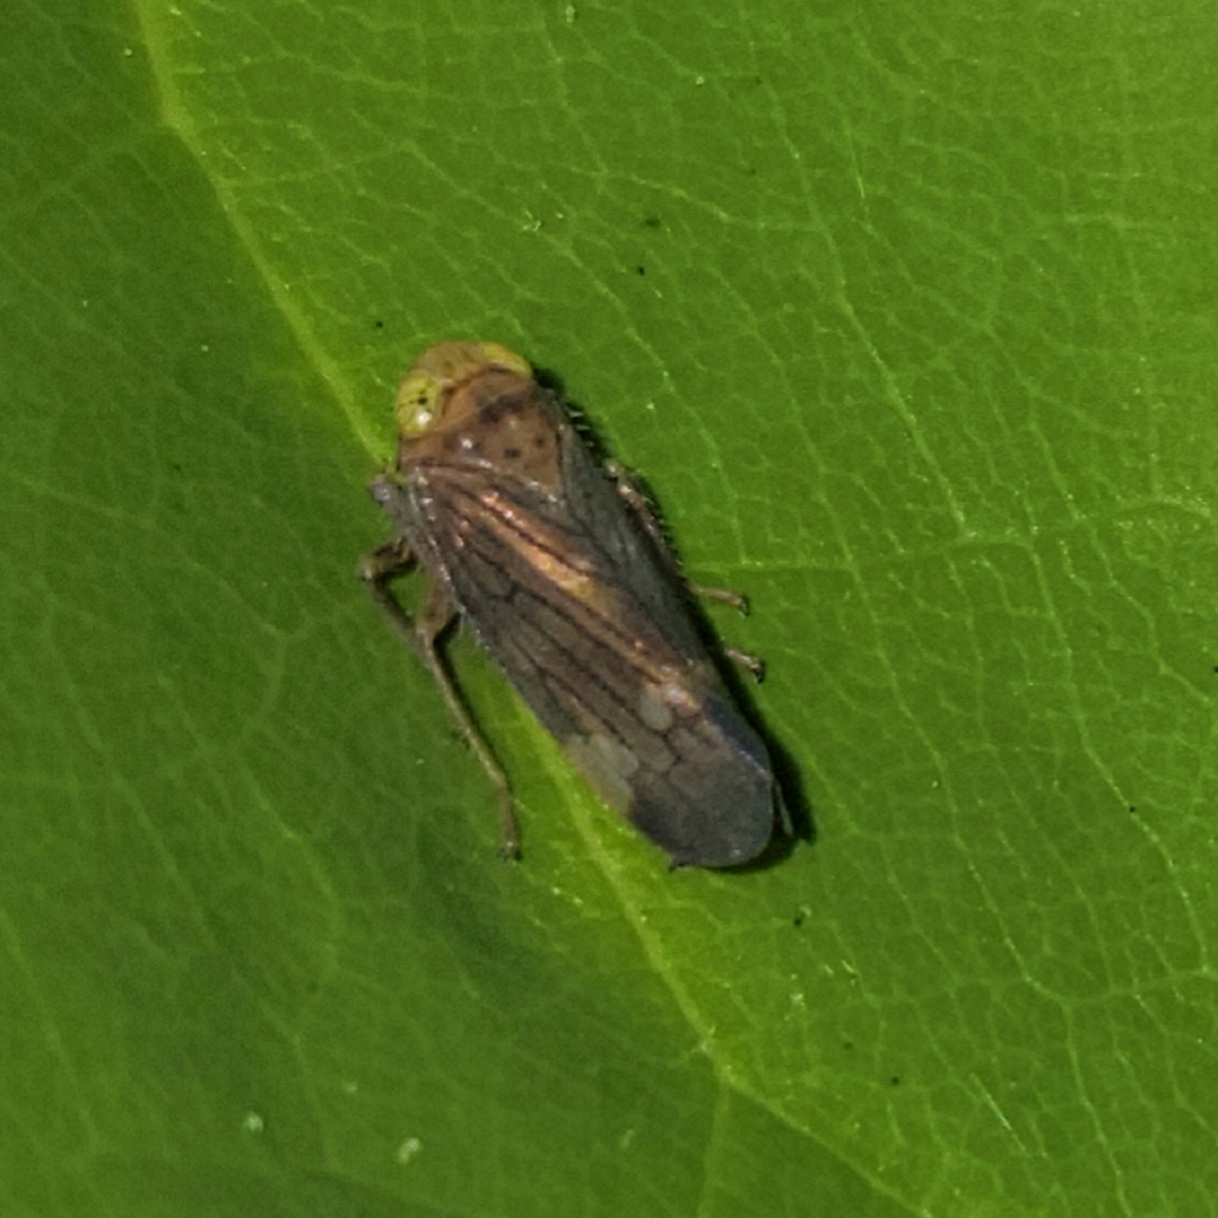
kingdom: Animalia
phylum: Arthropoda
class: Insecta
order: Hemiptera
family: Cicadellidae
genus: Jikradia
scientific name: Jikradia olitoria
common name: Coppery leafhopper
